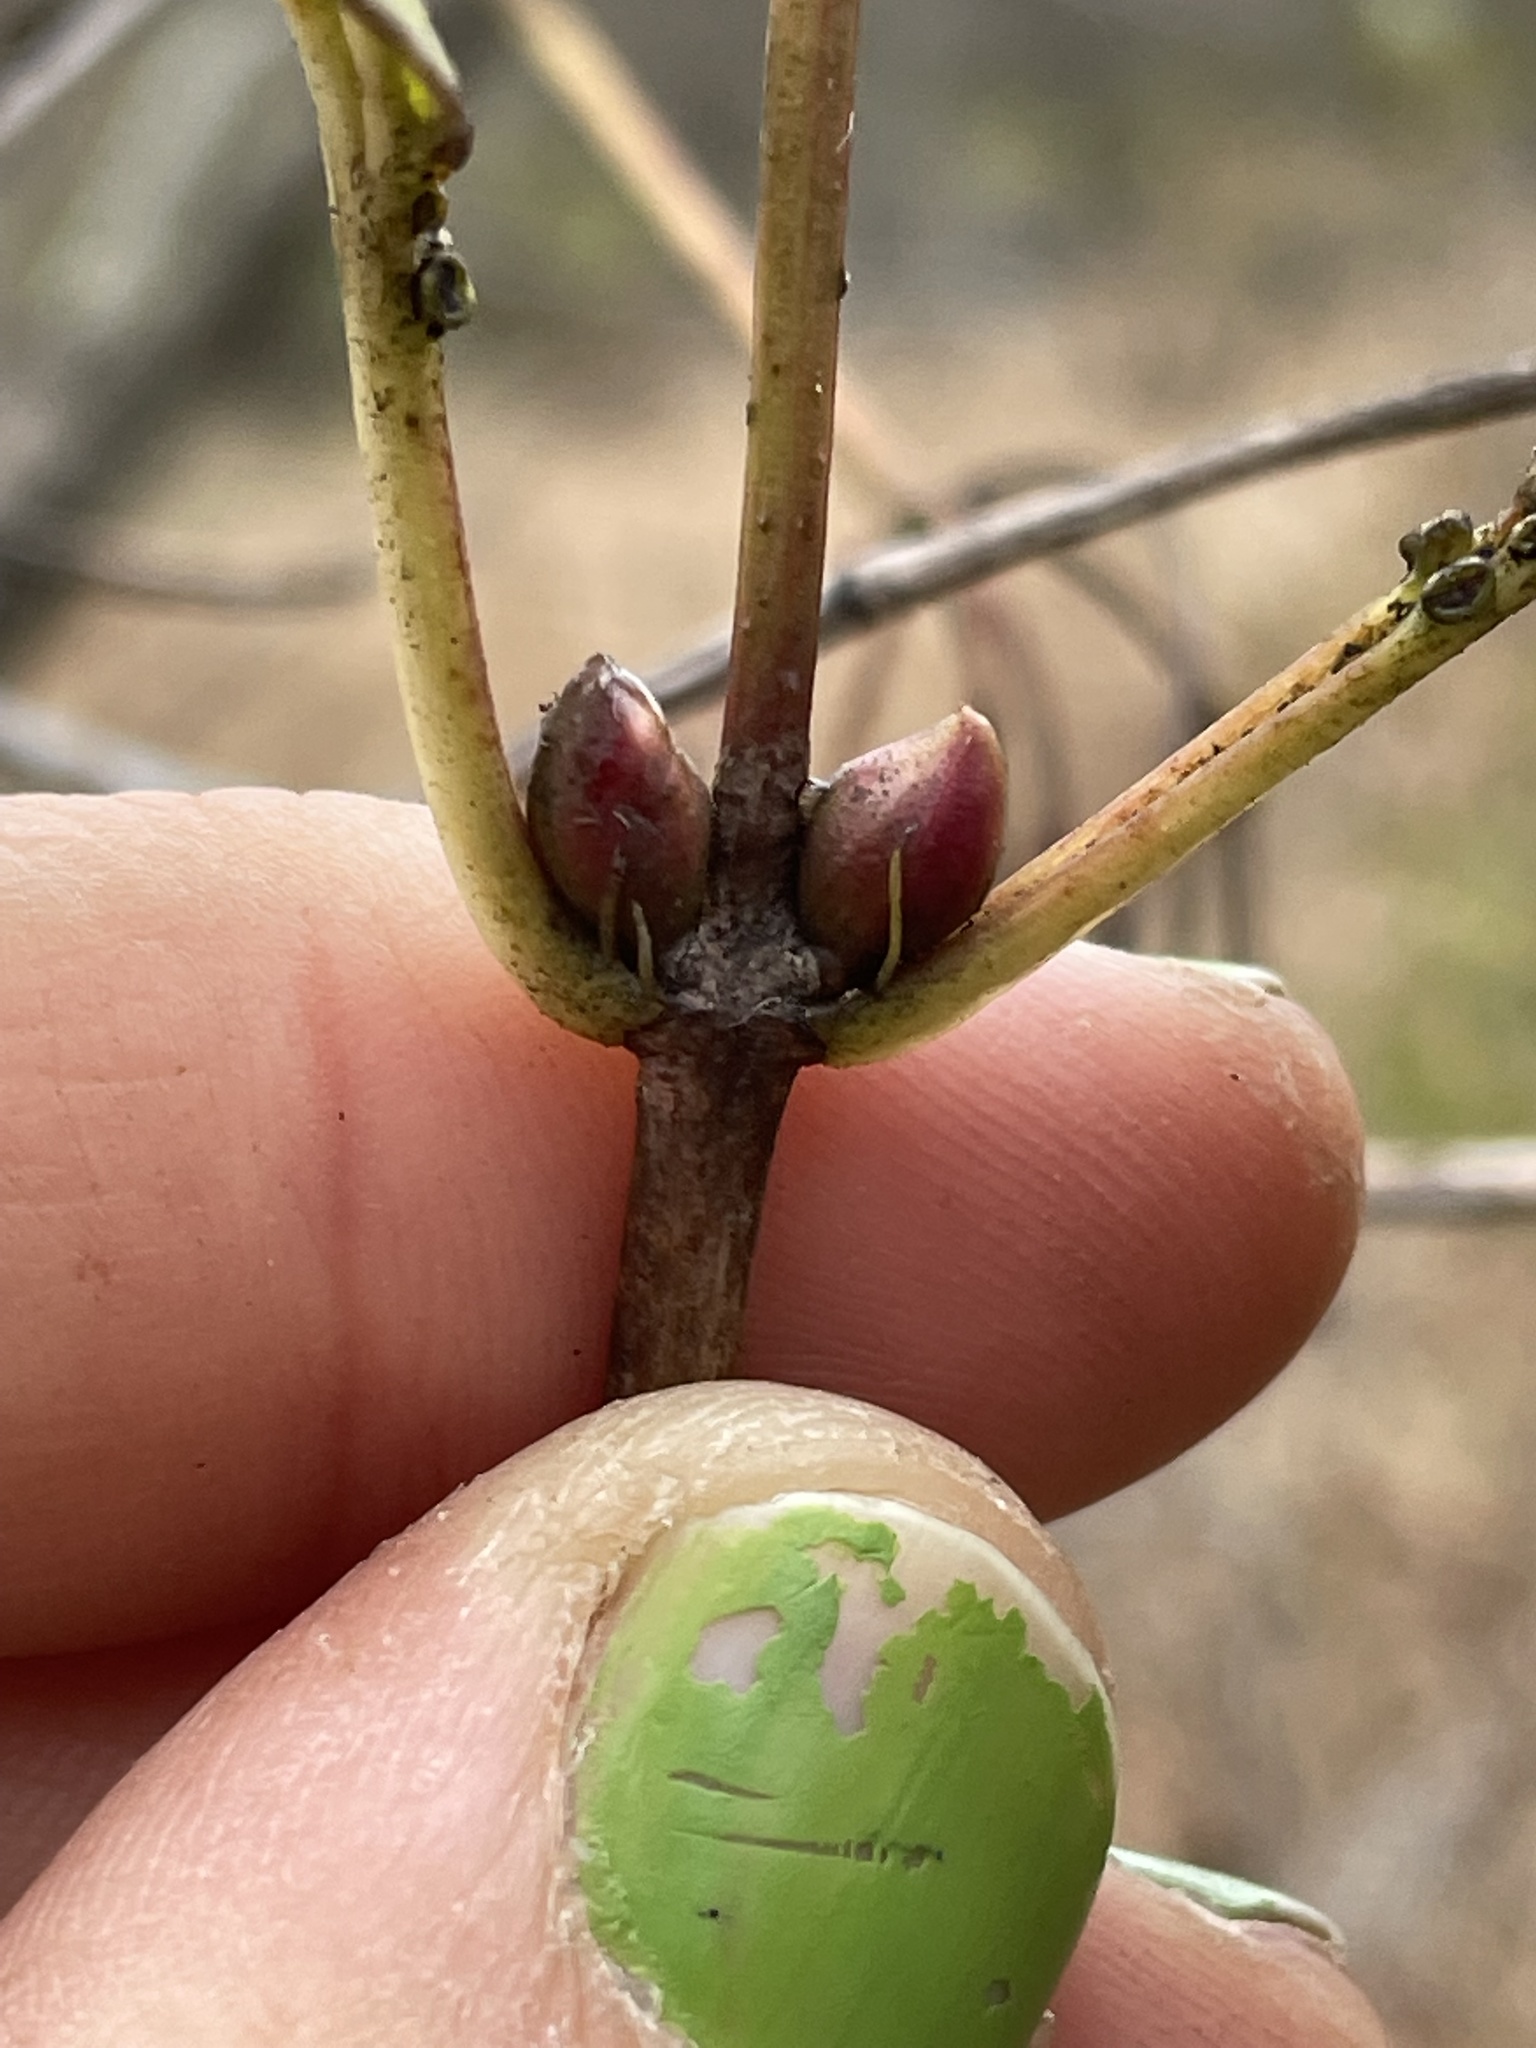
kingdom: Plantae
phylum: Tracheophyta
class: Magnoliopsida
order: Dipsacales
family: Viburnaceae
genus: Viburnum
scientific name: Viburnum opulus
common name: Guelder-rose
